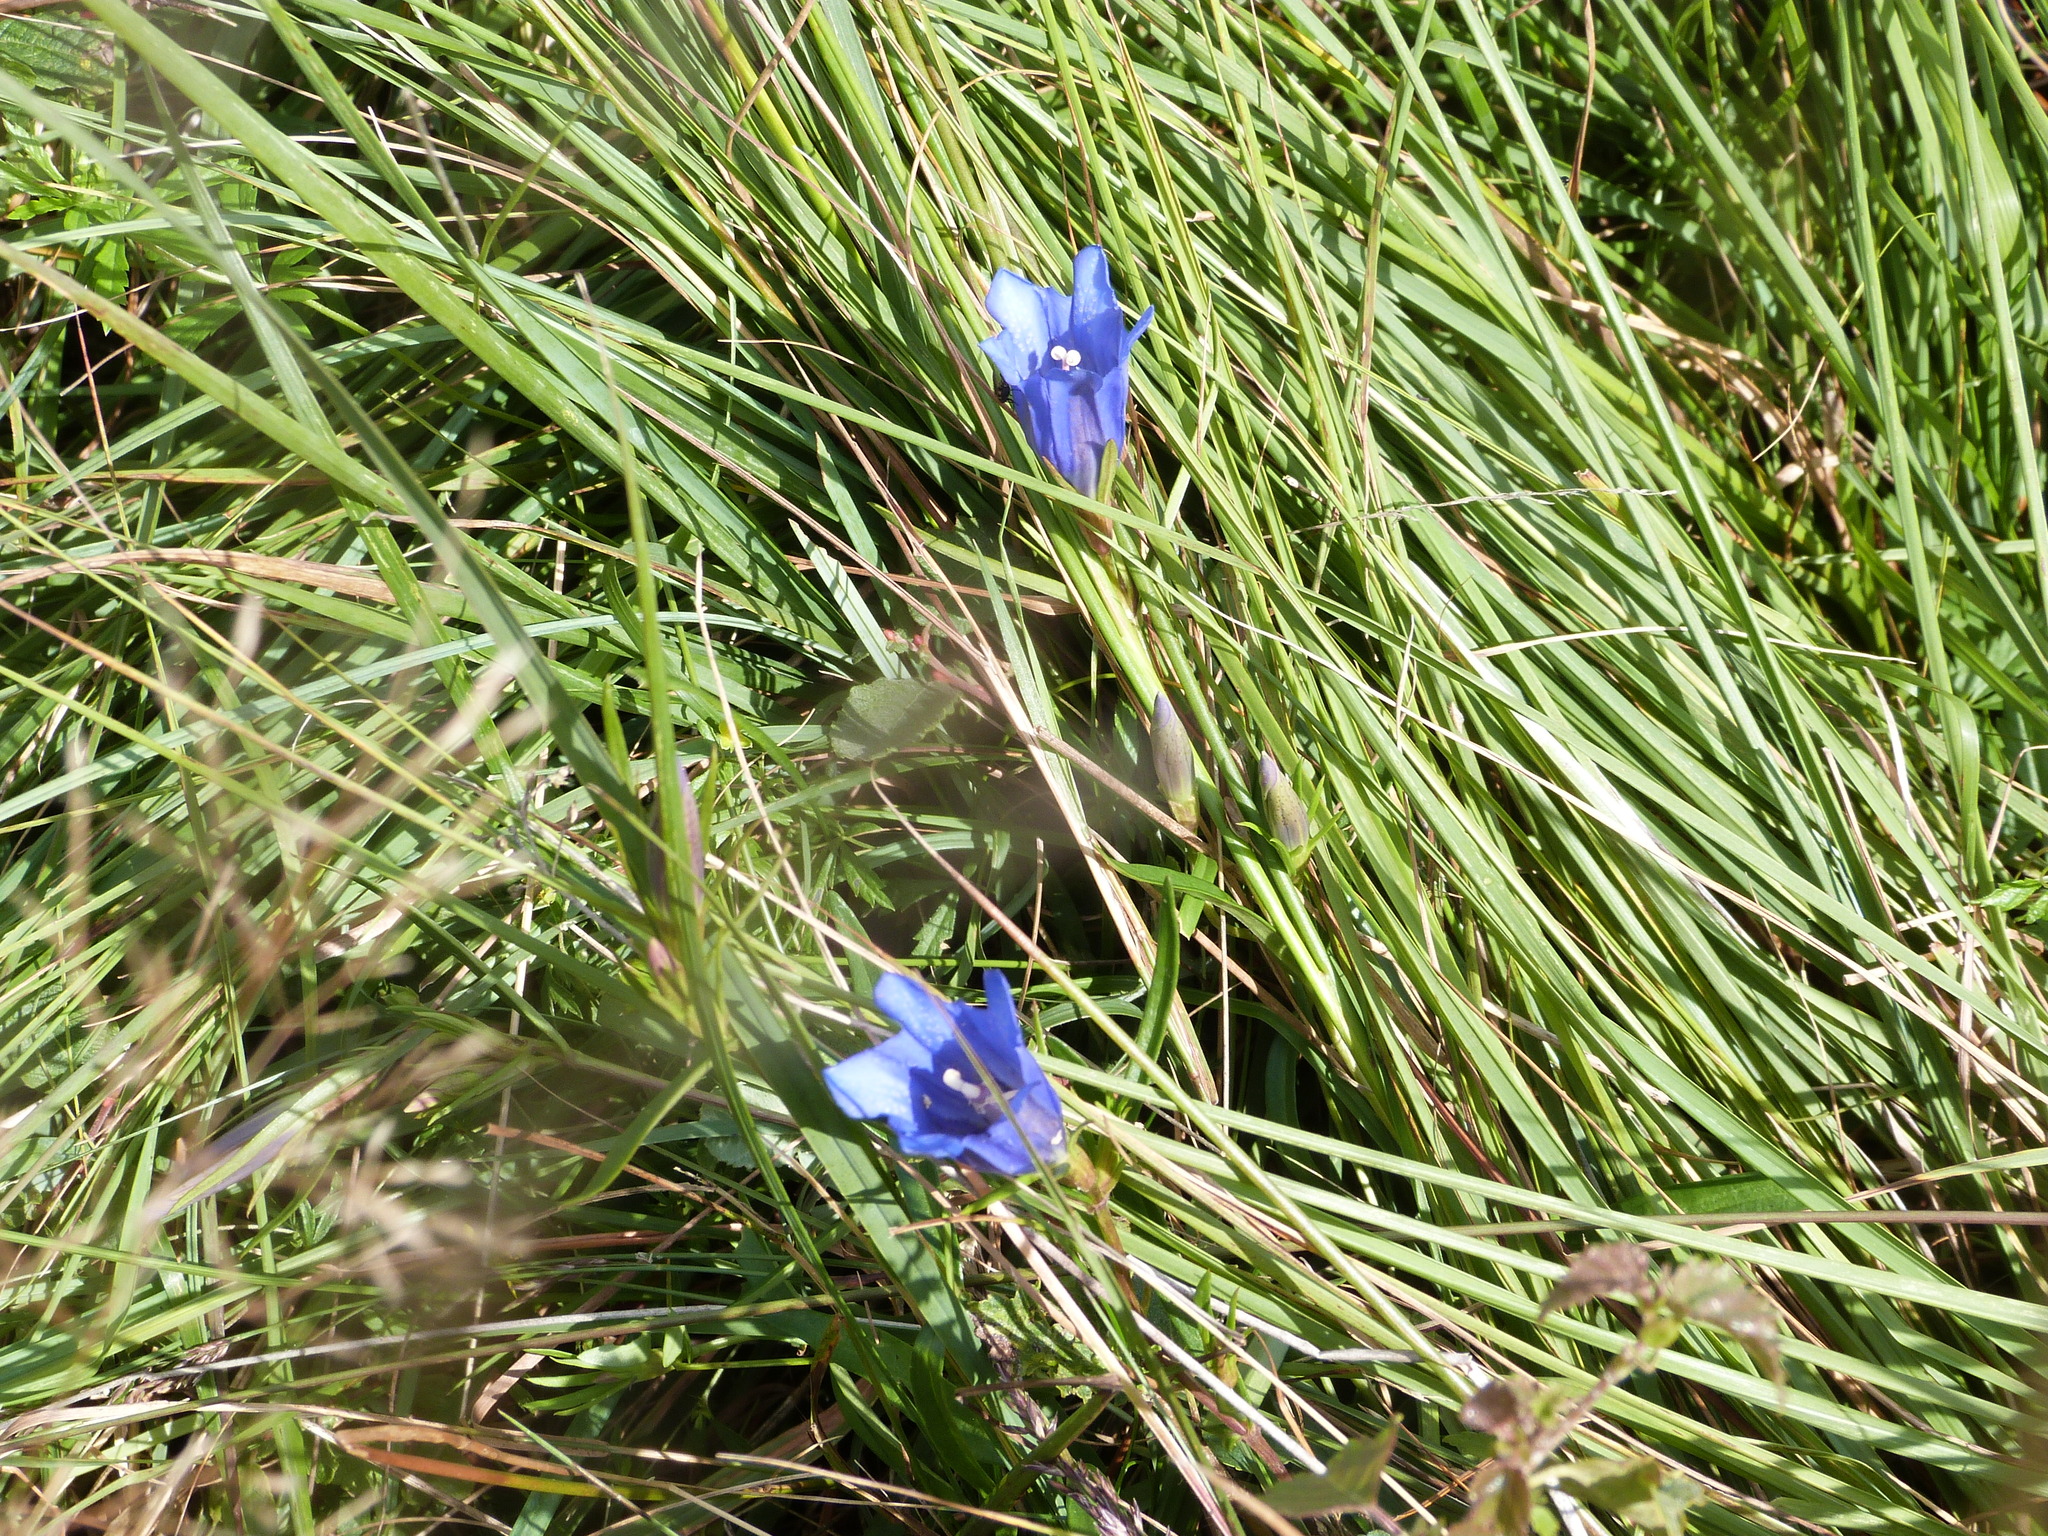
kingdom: Plantae
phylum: Tracheophyta
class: Magnoliopsida
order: Gentianales
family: Gentianaceae
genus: Gentiana
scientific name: Gentiana pneumonanthe
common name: Marsh gentian
